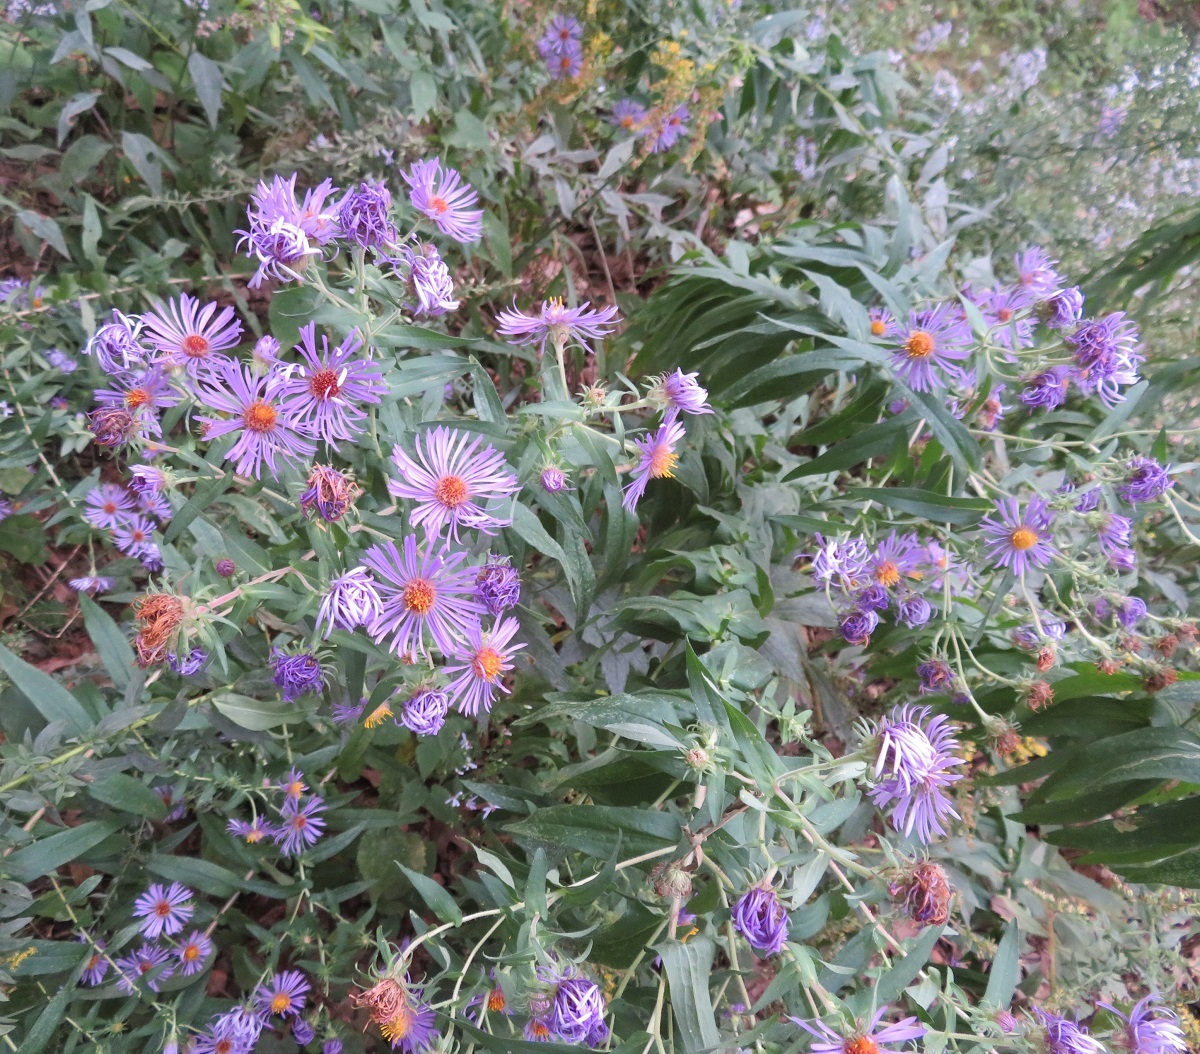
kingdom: Plantae
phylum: Tracheophyta
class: Magnoliopsida
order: Asterales
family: Asteraceae
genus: Symphyotrichum
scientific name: Symphyotrichum novae-angliae
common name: Michaelmas daisy
